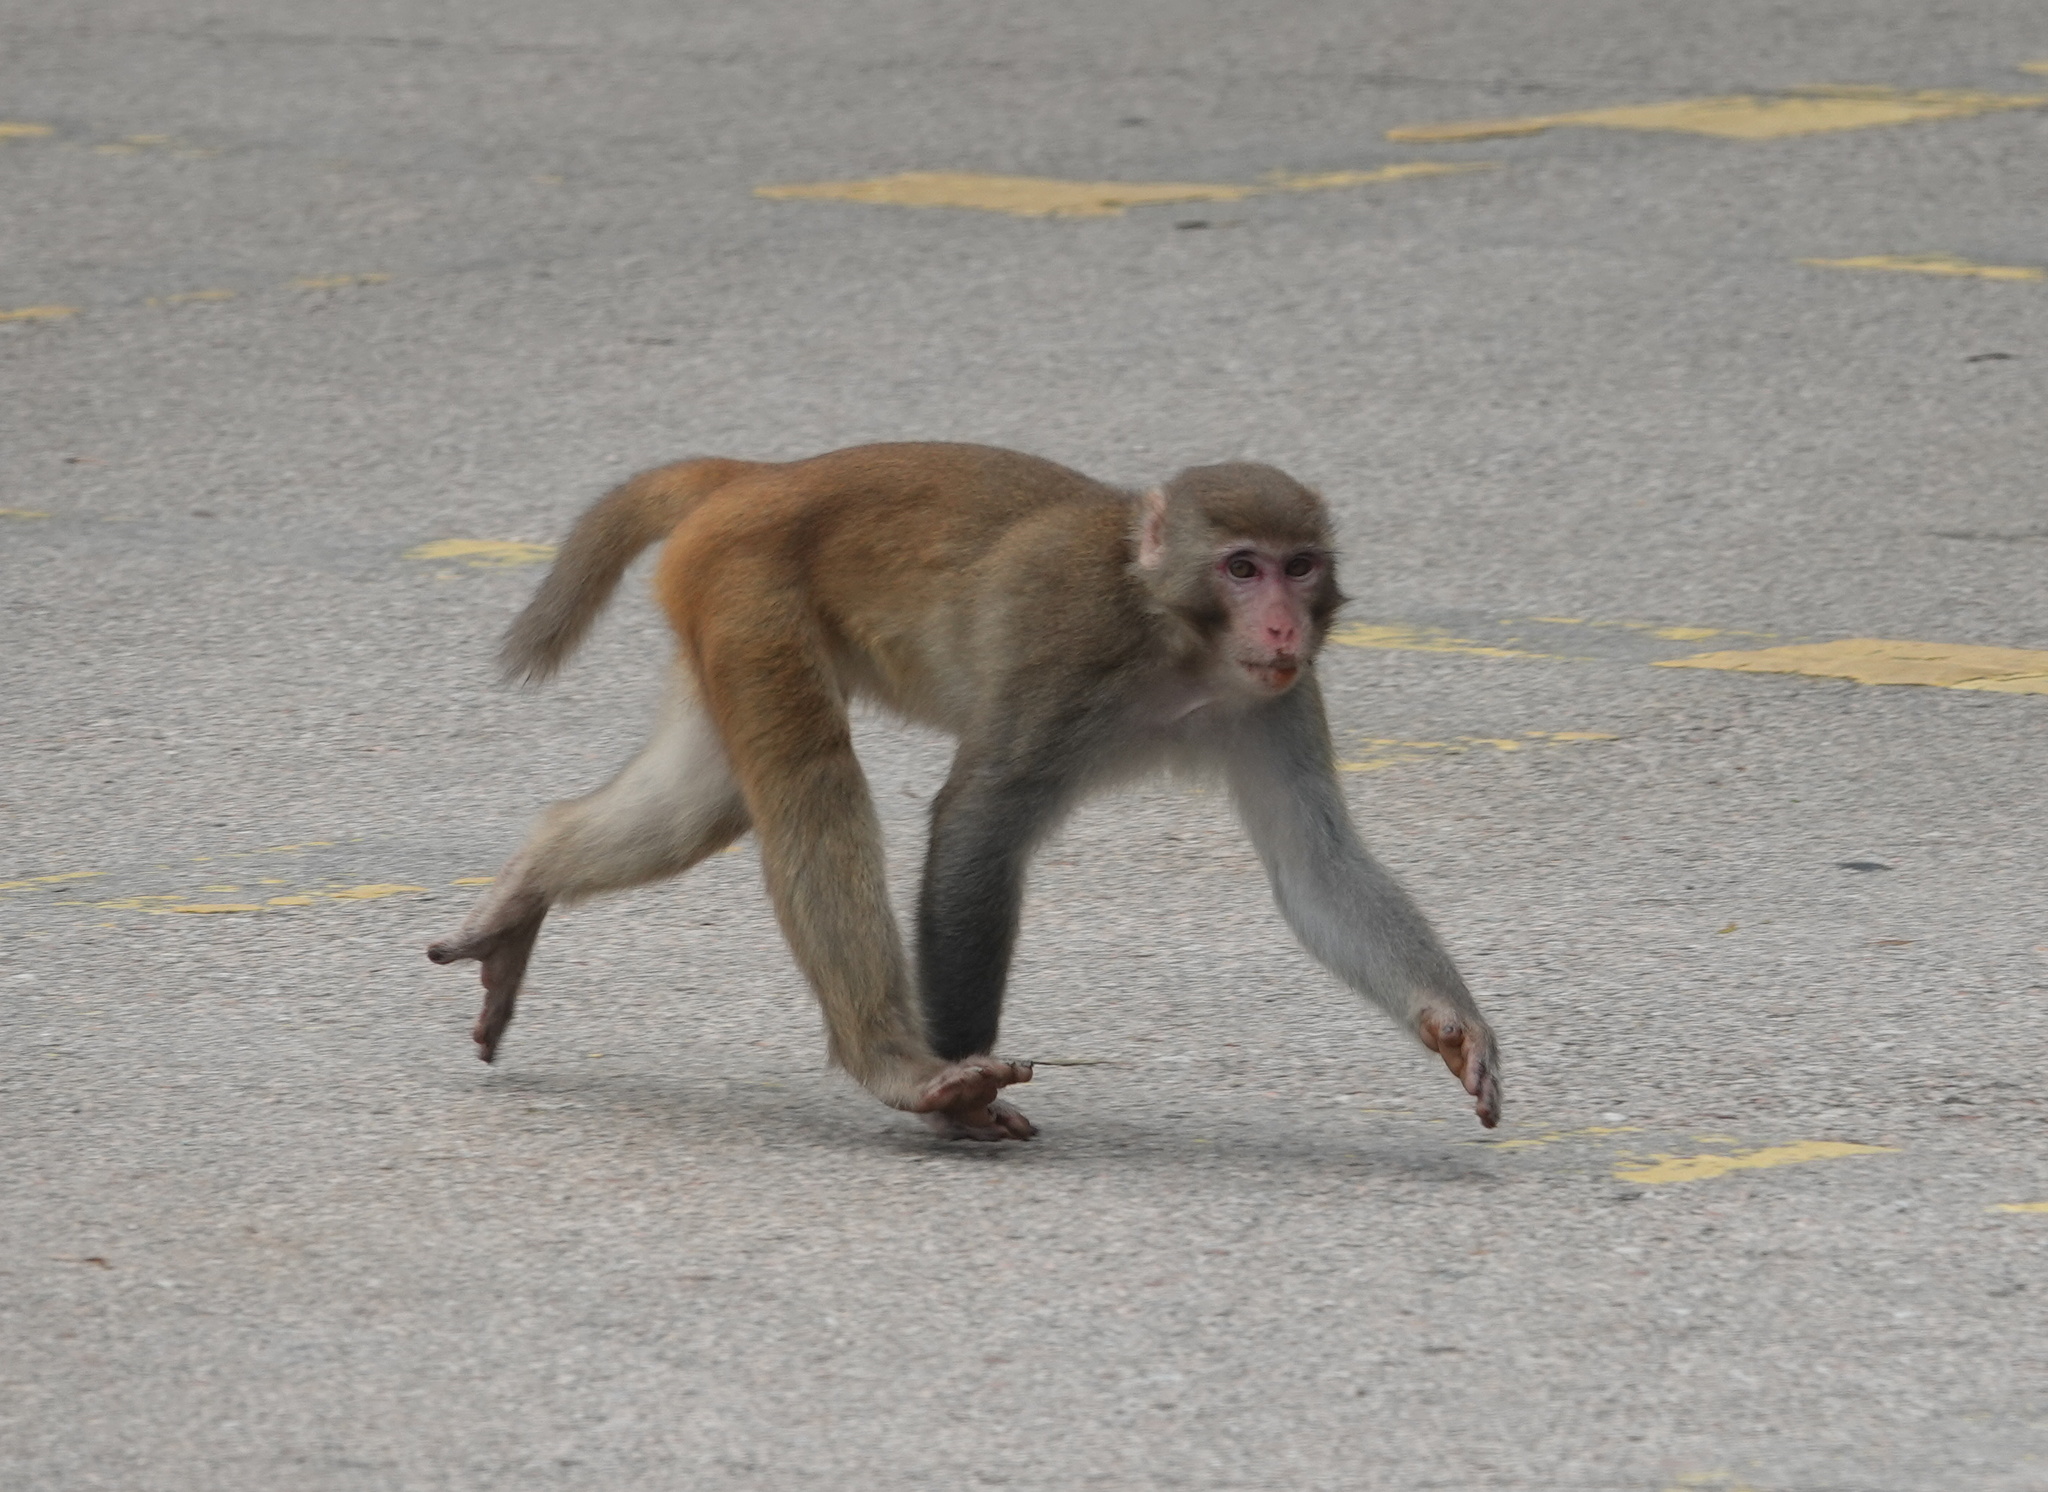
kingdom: Animalia
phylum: Chordata
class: Mammalia
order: Primates
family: Cercopithecidae
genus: Macaca
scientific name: Macaca mulatta
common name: Rhesus monkey
